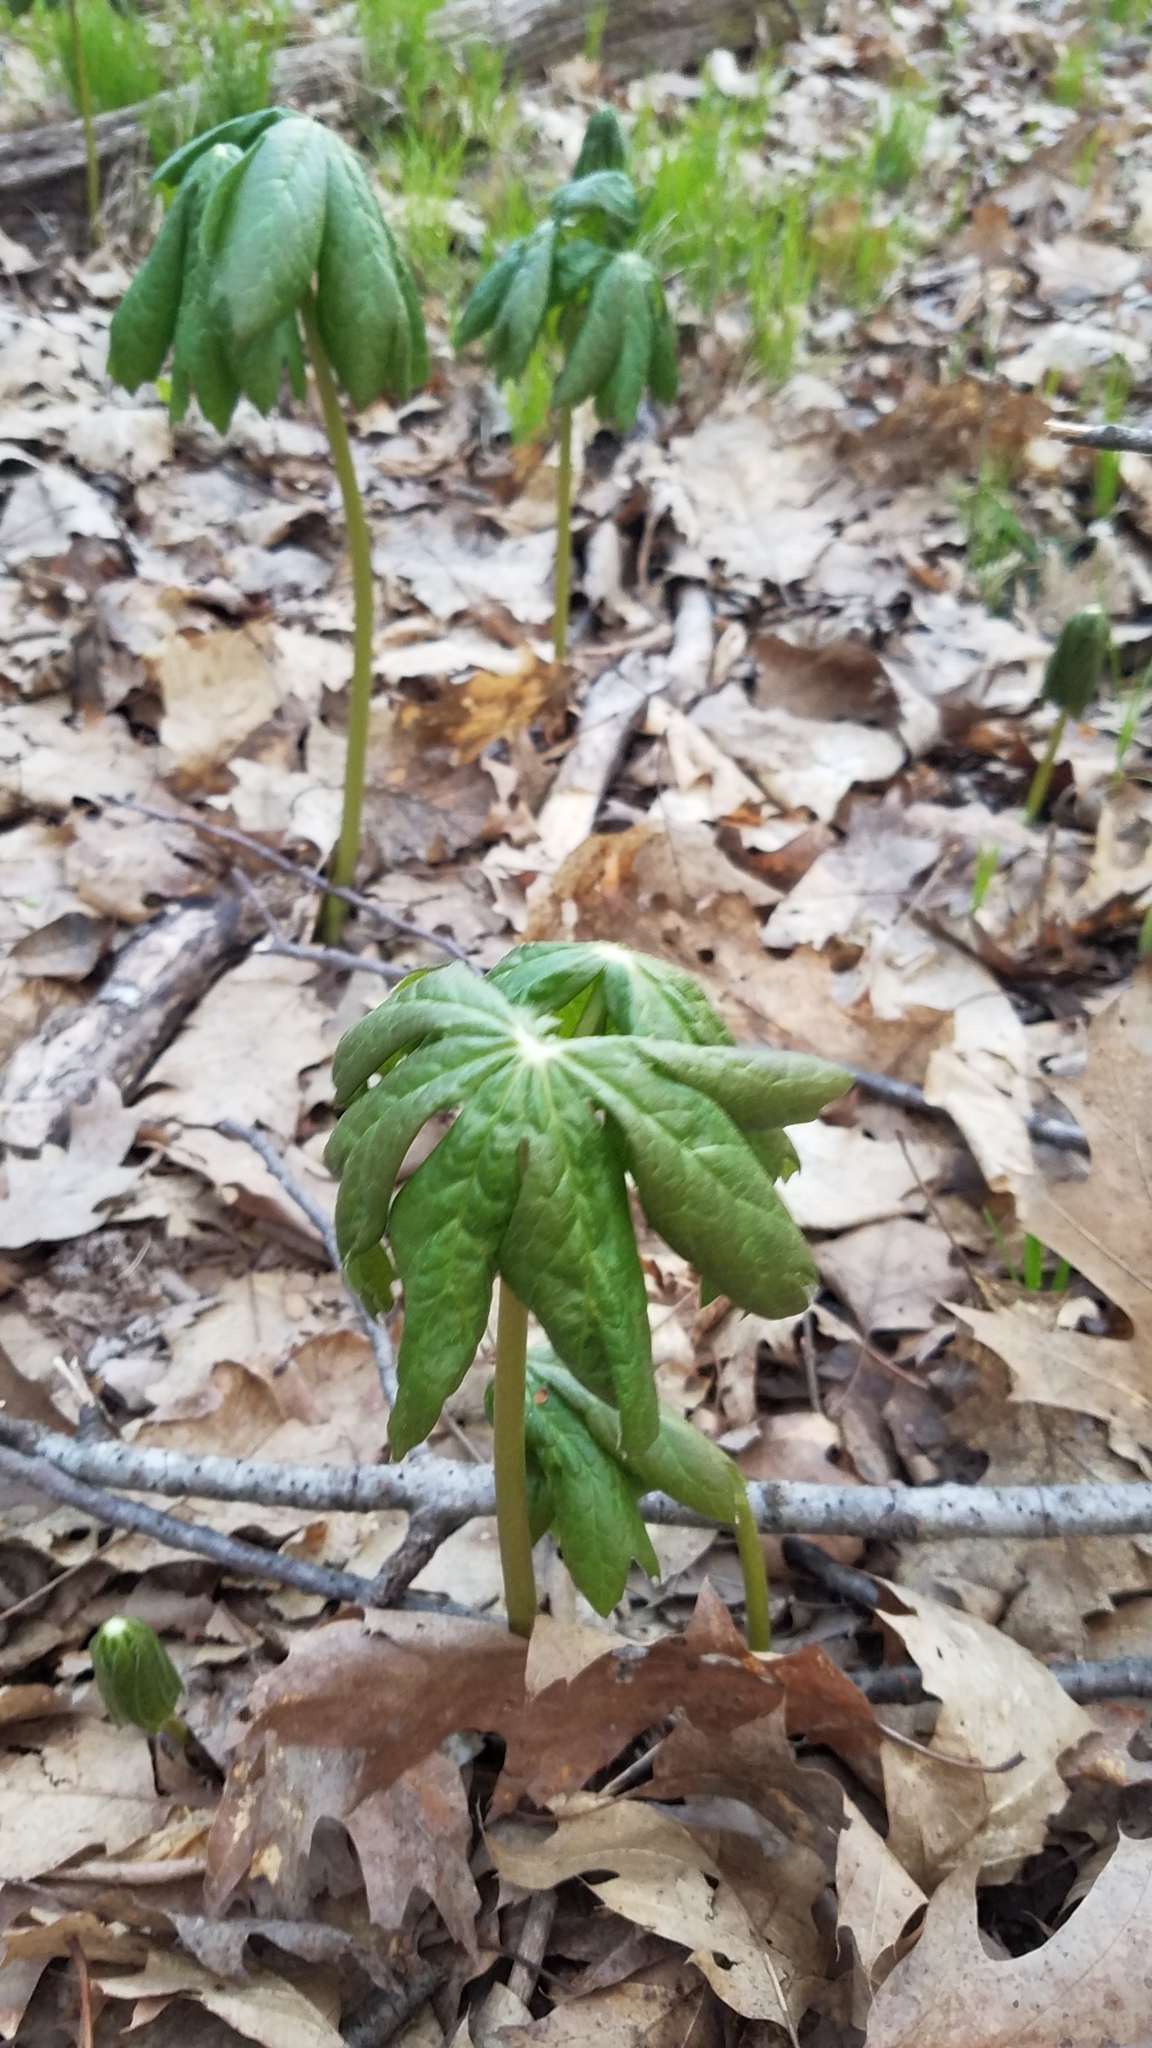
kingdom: Plantae
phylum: Tracheophyta
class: Magnoliopsida
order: Ranunculales
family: Berberidaceae
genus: Podophyllum
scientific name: Podophyllum peltatum
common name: Wild mandrake
